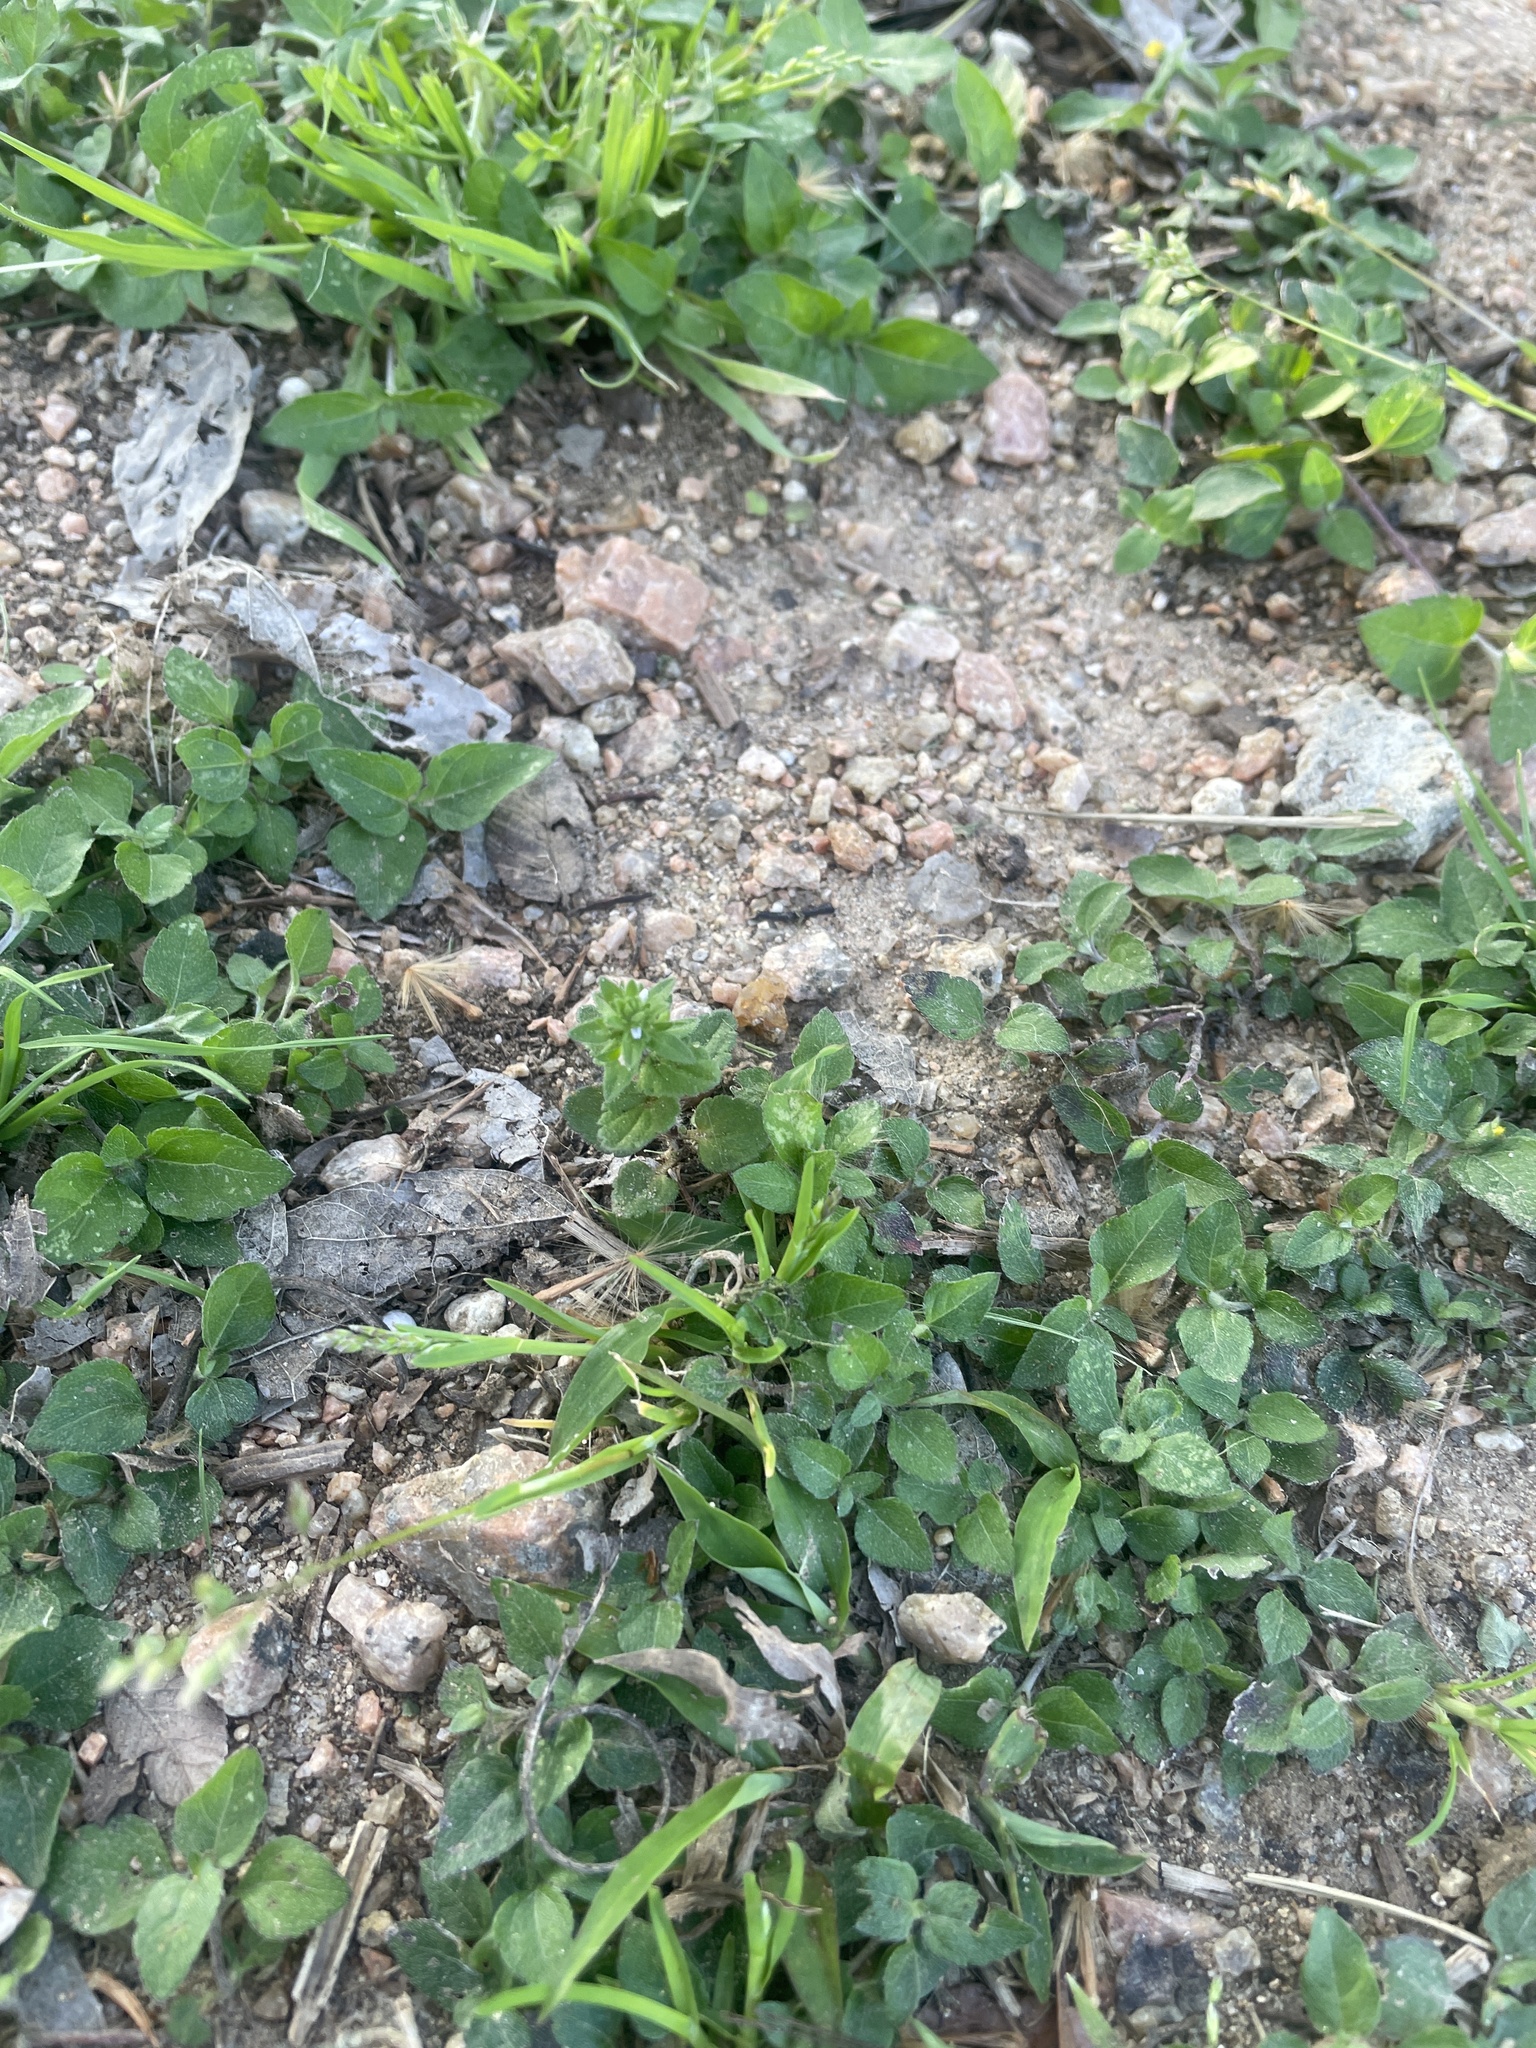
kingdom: Plantae
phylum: Tracheophyta
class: Magnoliopsida
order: Lamiales
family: Plantaginaceae
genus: Veronica
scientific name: Veronica arvensis
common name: Corn speedwell
